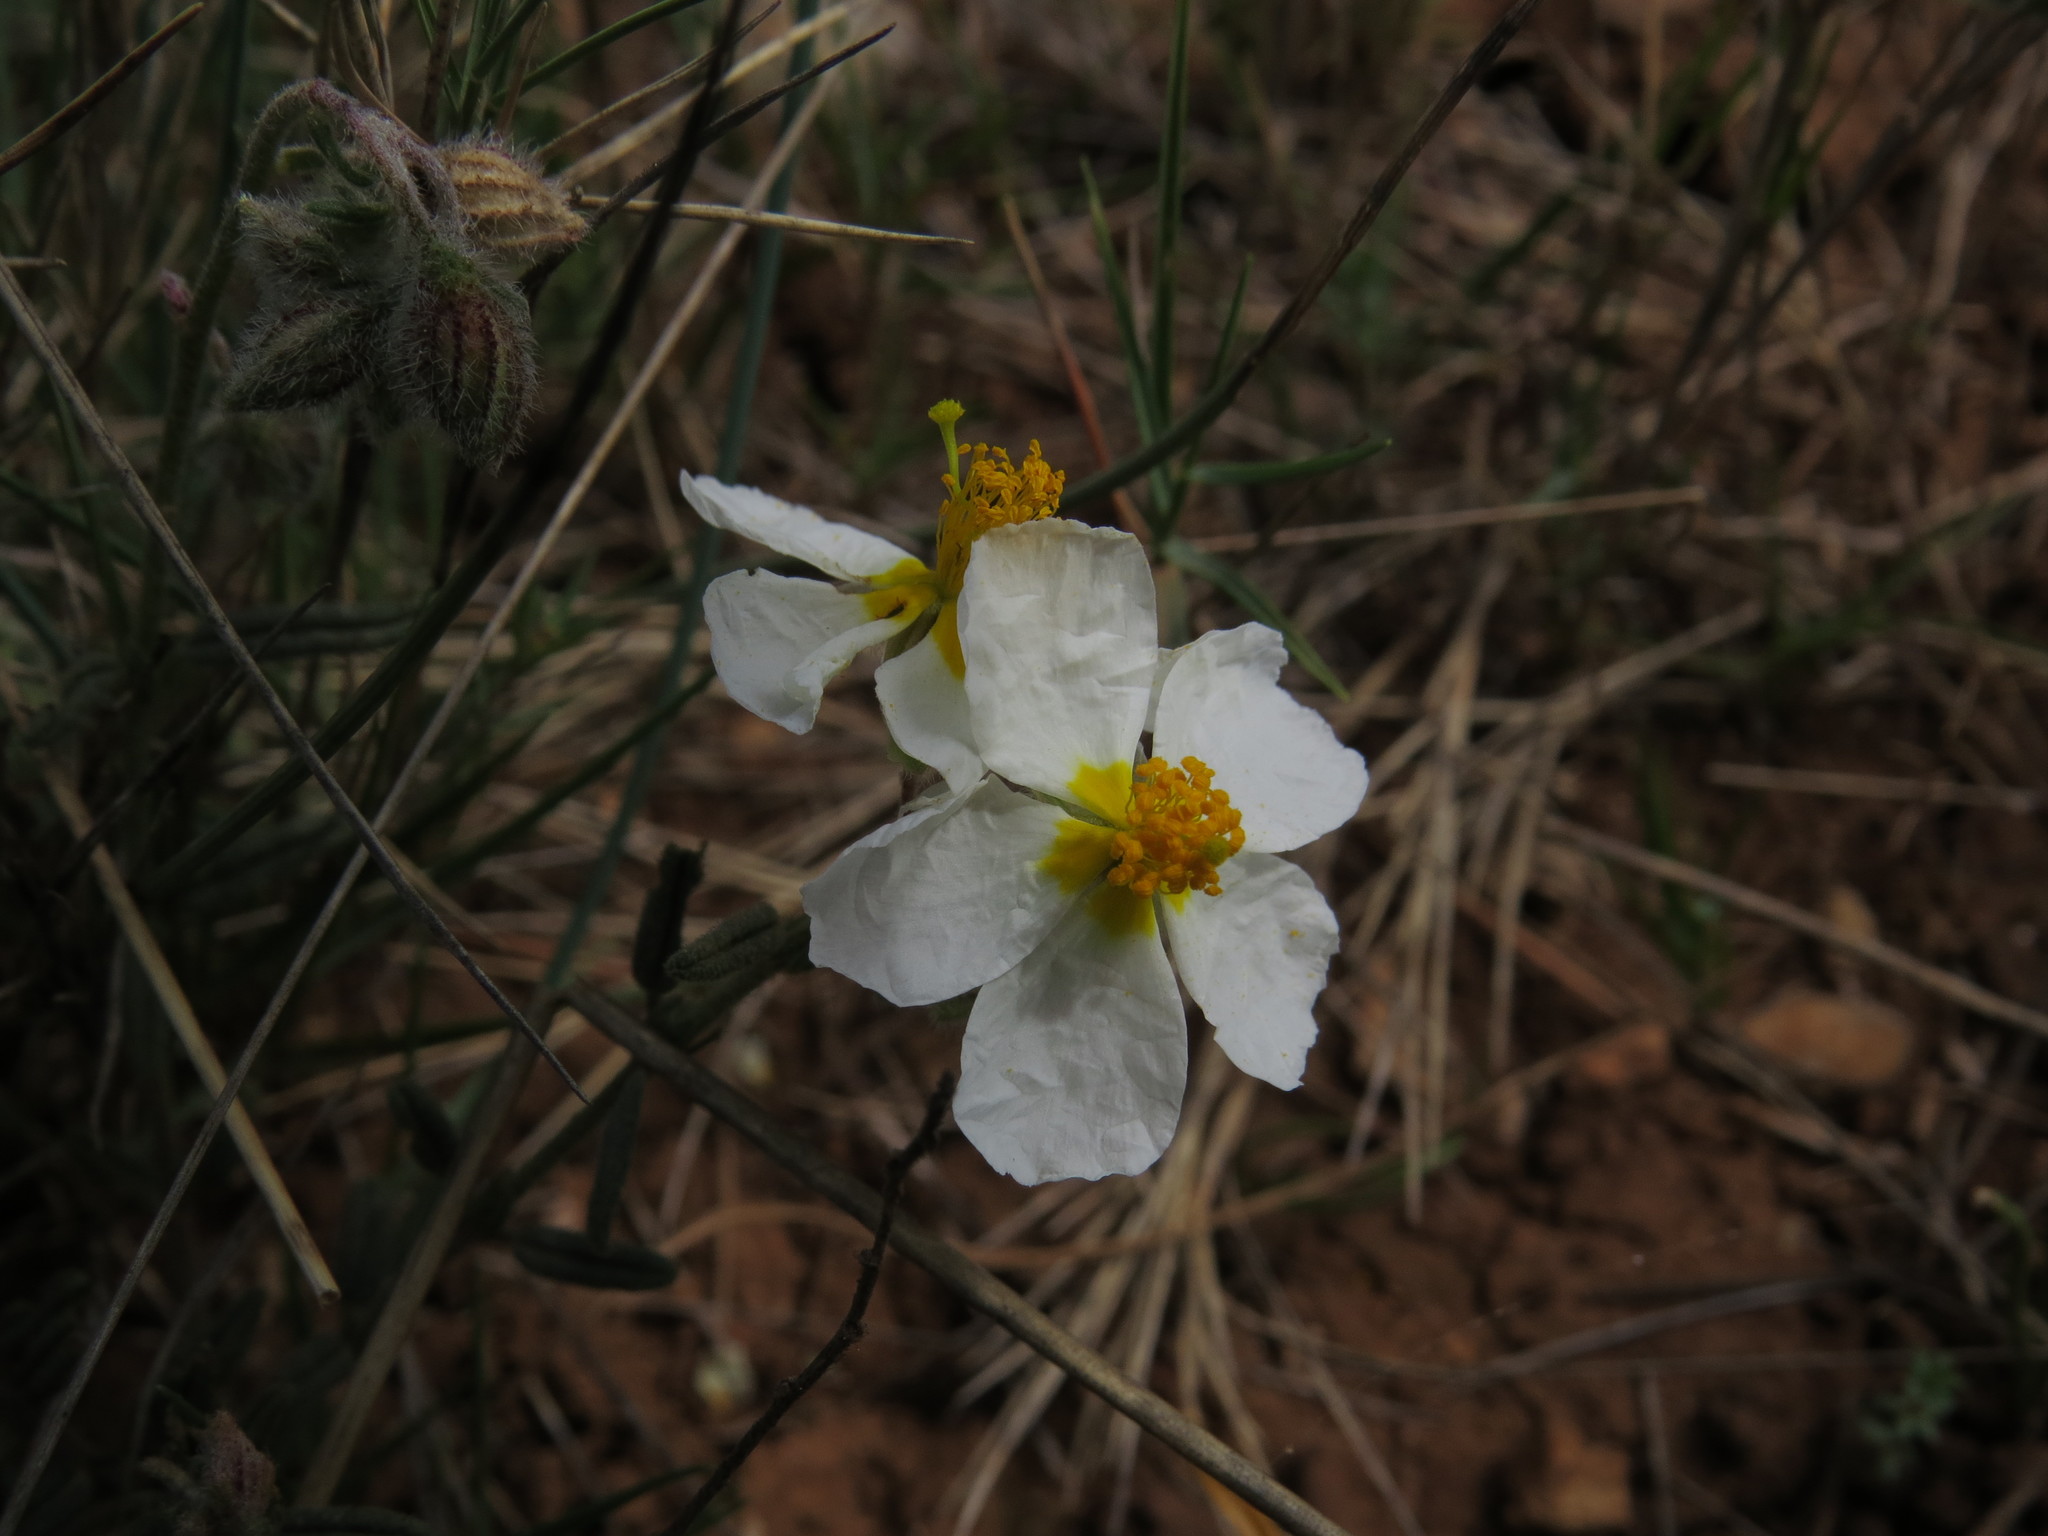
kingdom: Plantae
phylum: Tracheophyta
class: Magnoliopsida
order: Malvales
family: Cistaceae
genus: Helianthemum
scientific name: Helianthemum apenninum
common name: White rock-rose
